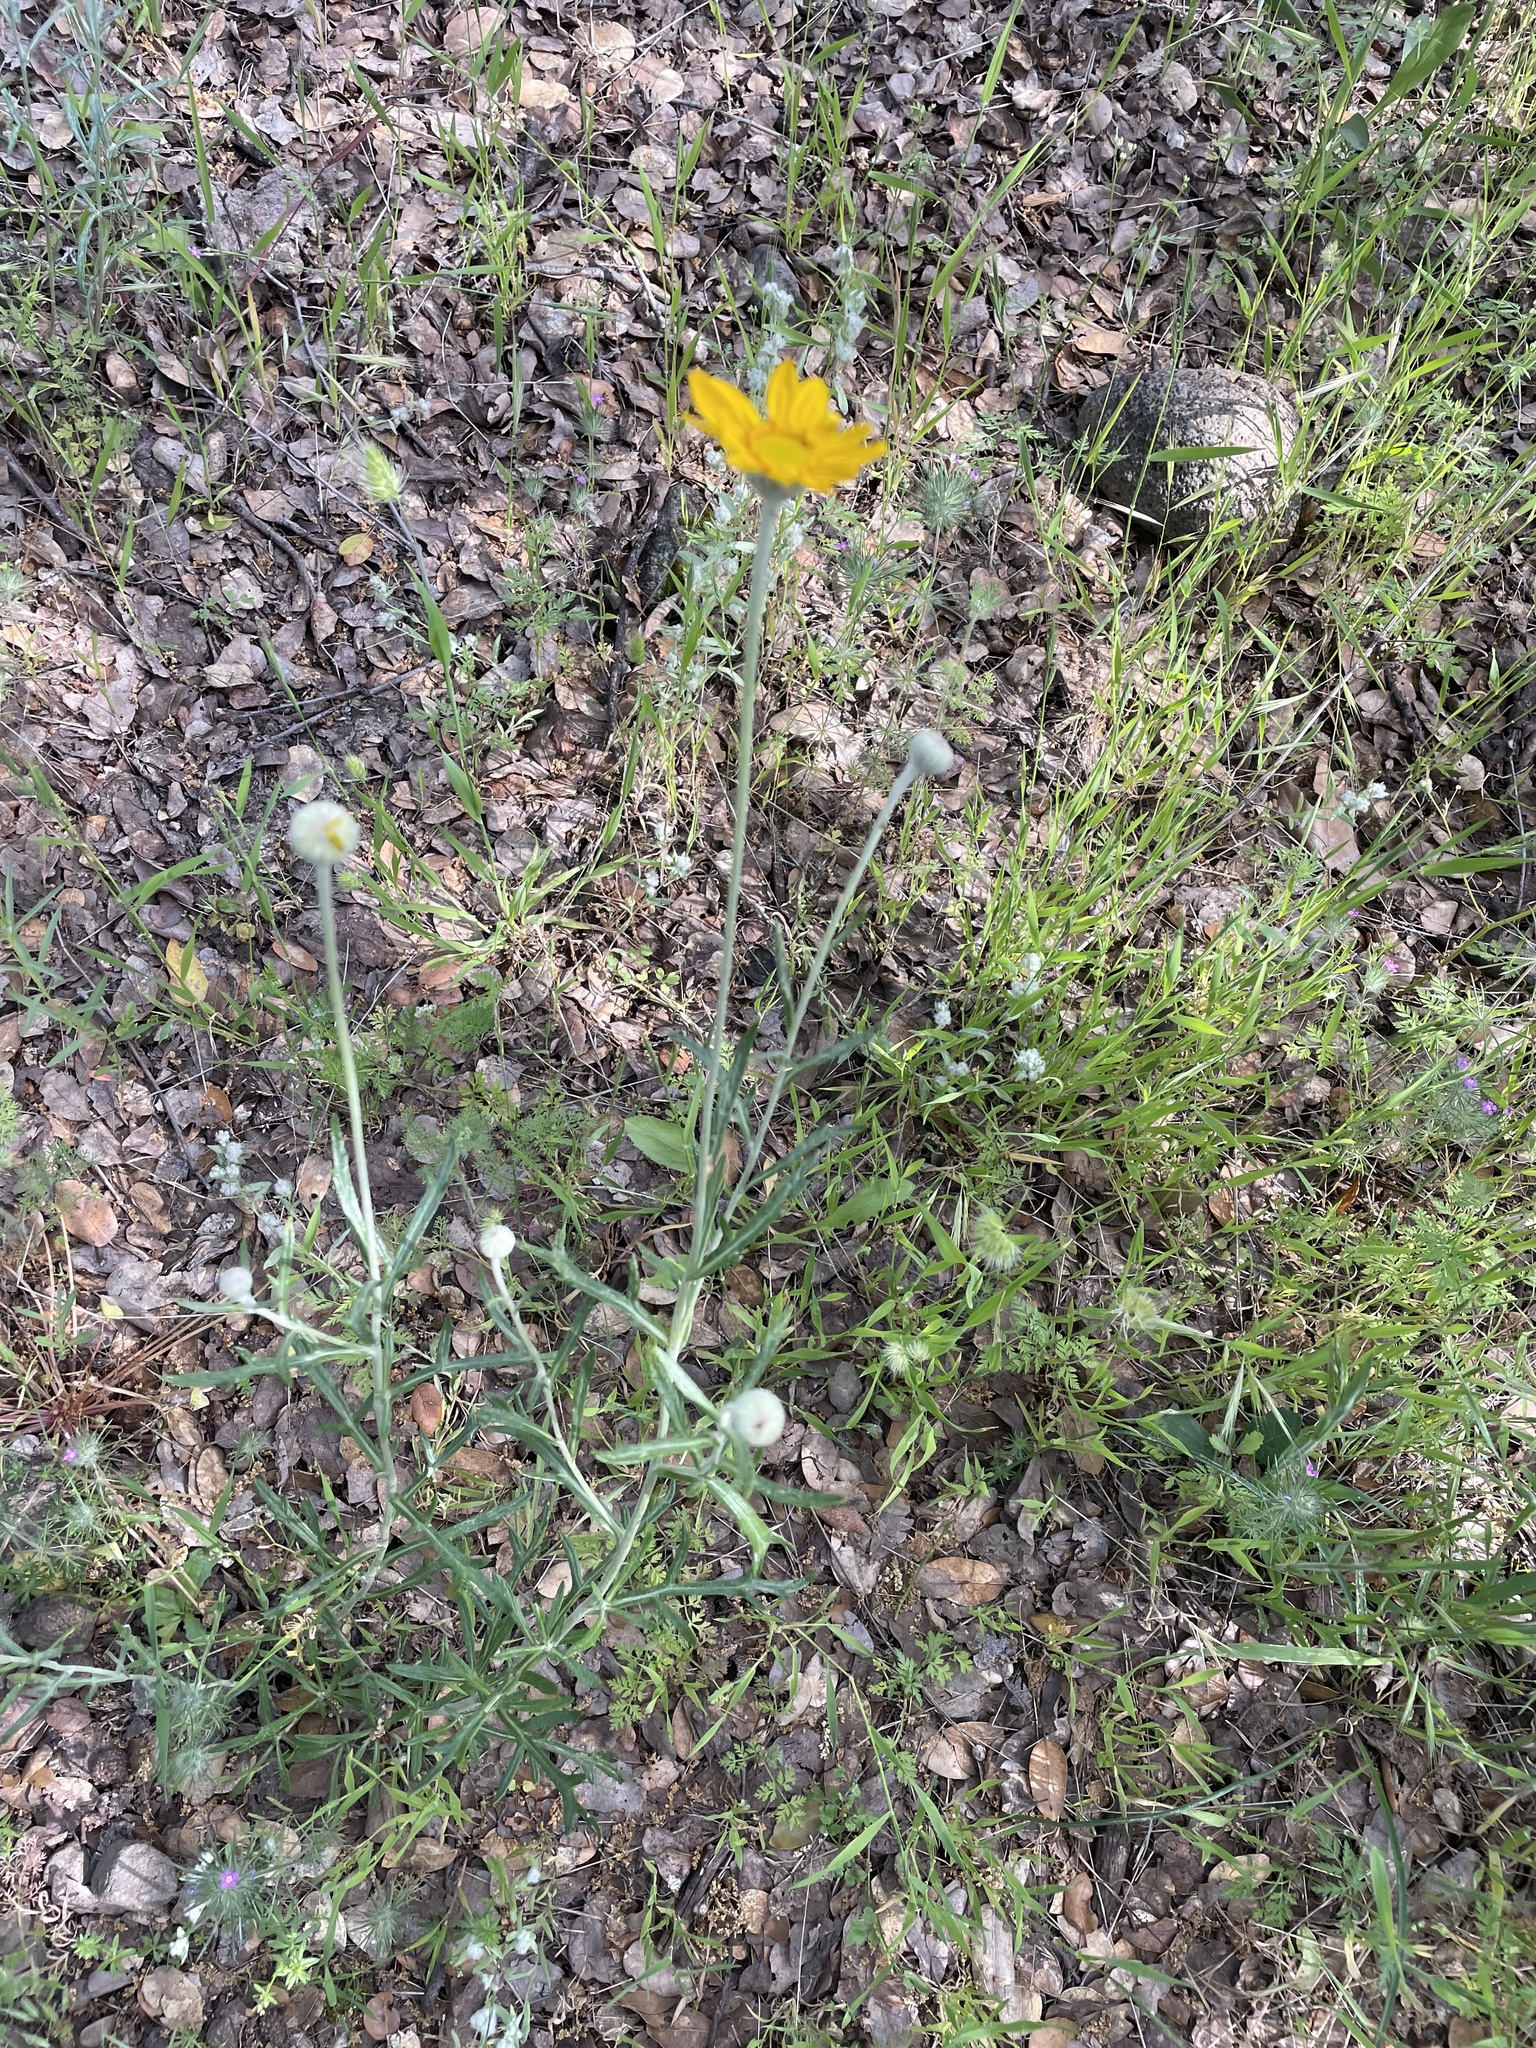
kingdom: Plantae
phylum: Tracheophyta
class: Magnoliopsida
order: Asterales
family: Asteraceae
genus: Eriophyllum
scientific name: Eriophyllum lanatum
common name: Common woolly-sunflower
